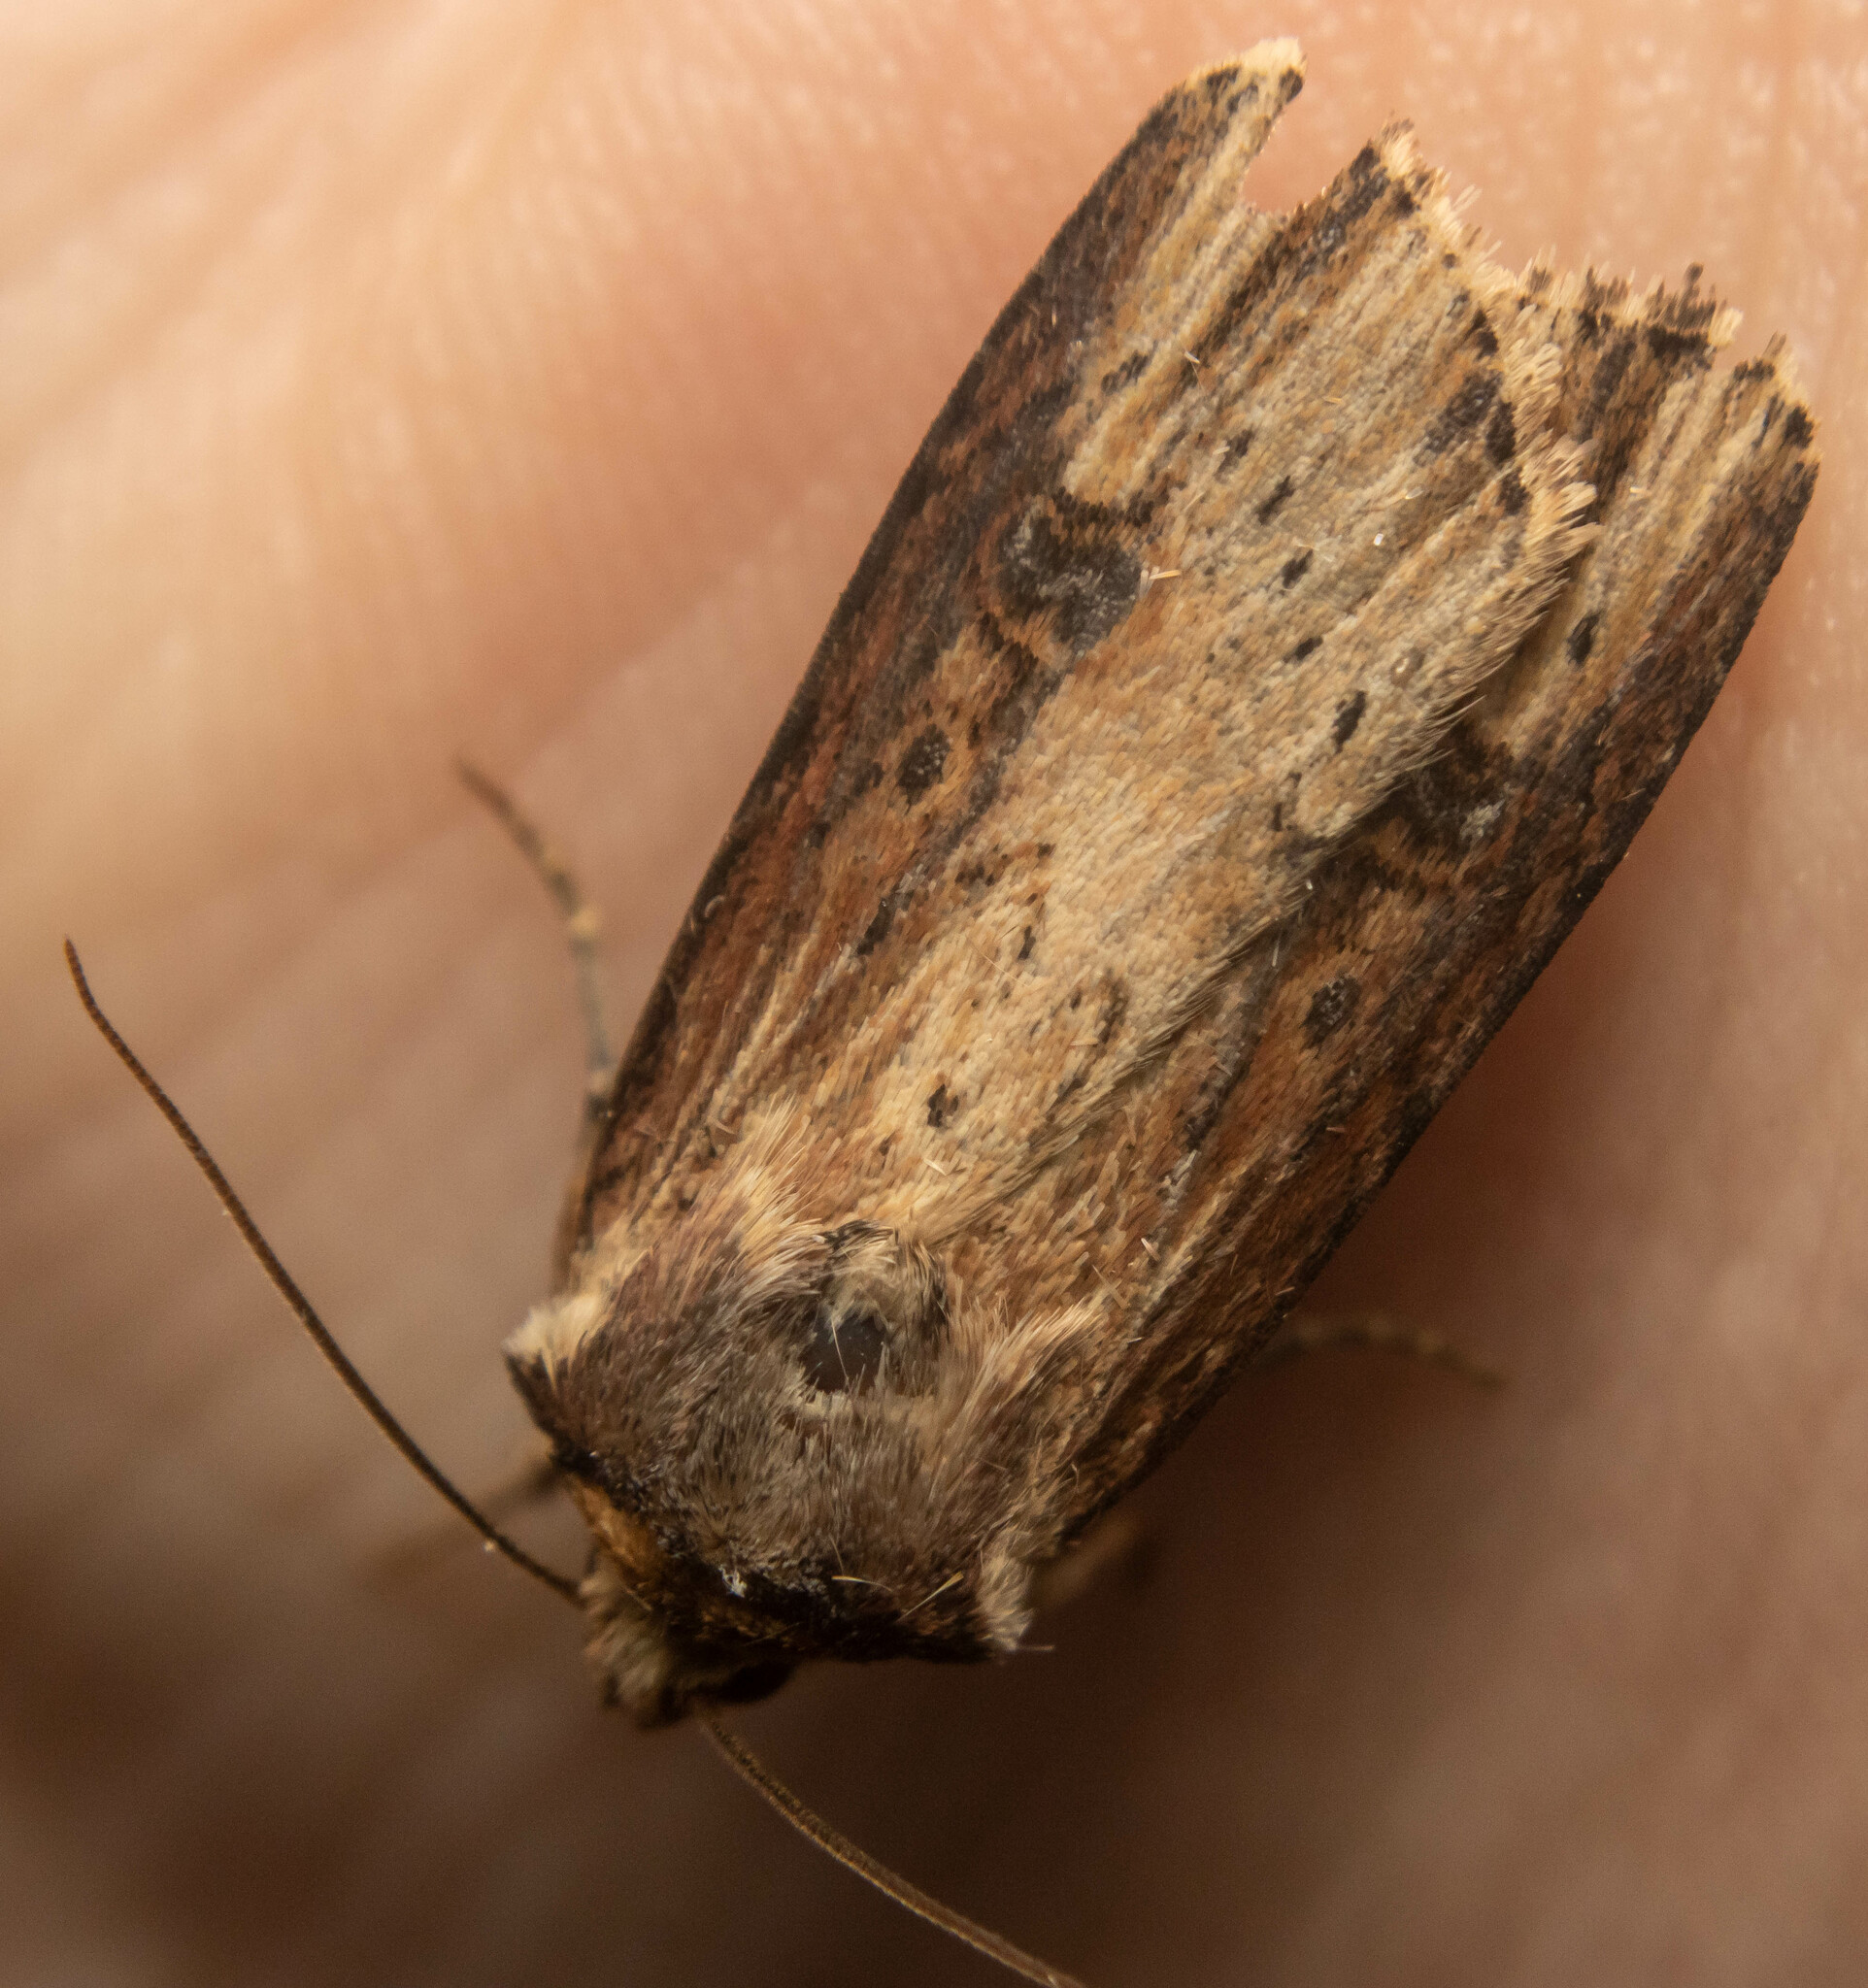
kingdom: Animalia
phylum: Arthropoda
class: Insecta
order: Lepidoptera
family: Noctuidae
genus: Axylia
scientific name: Axylia putris
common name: Flame
